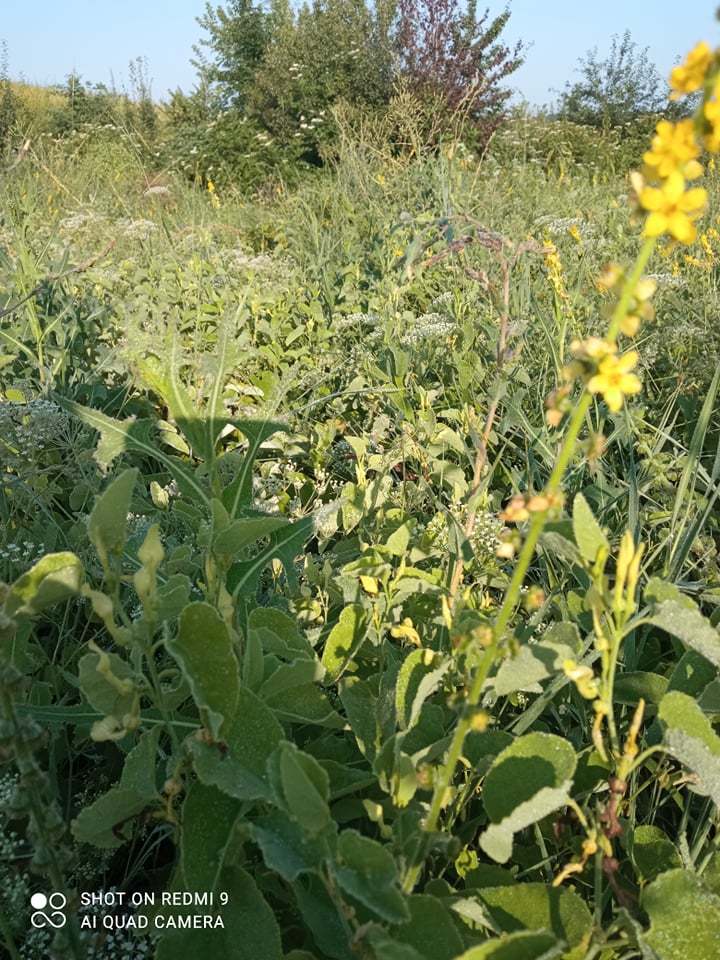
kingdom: Plantae
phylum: Tracheophyta
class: Magnoliopsida
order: Piperales
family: Aristolochiaceae
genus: Aristolochia
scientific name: Aristolochia clematitis
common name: Birthwort
